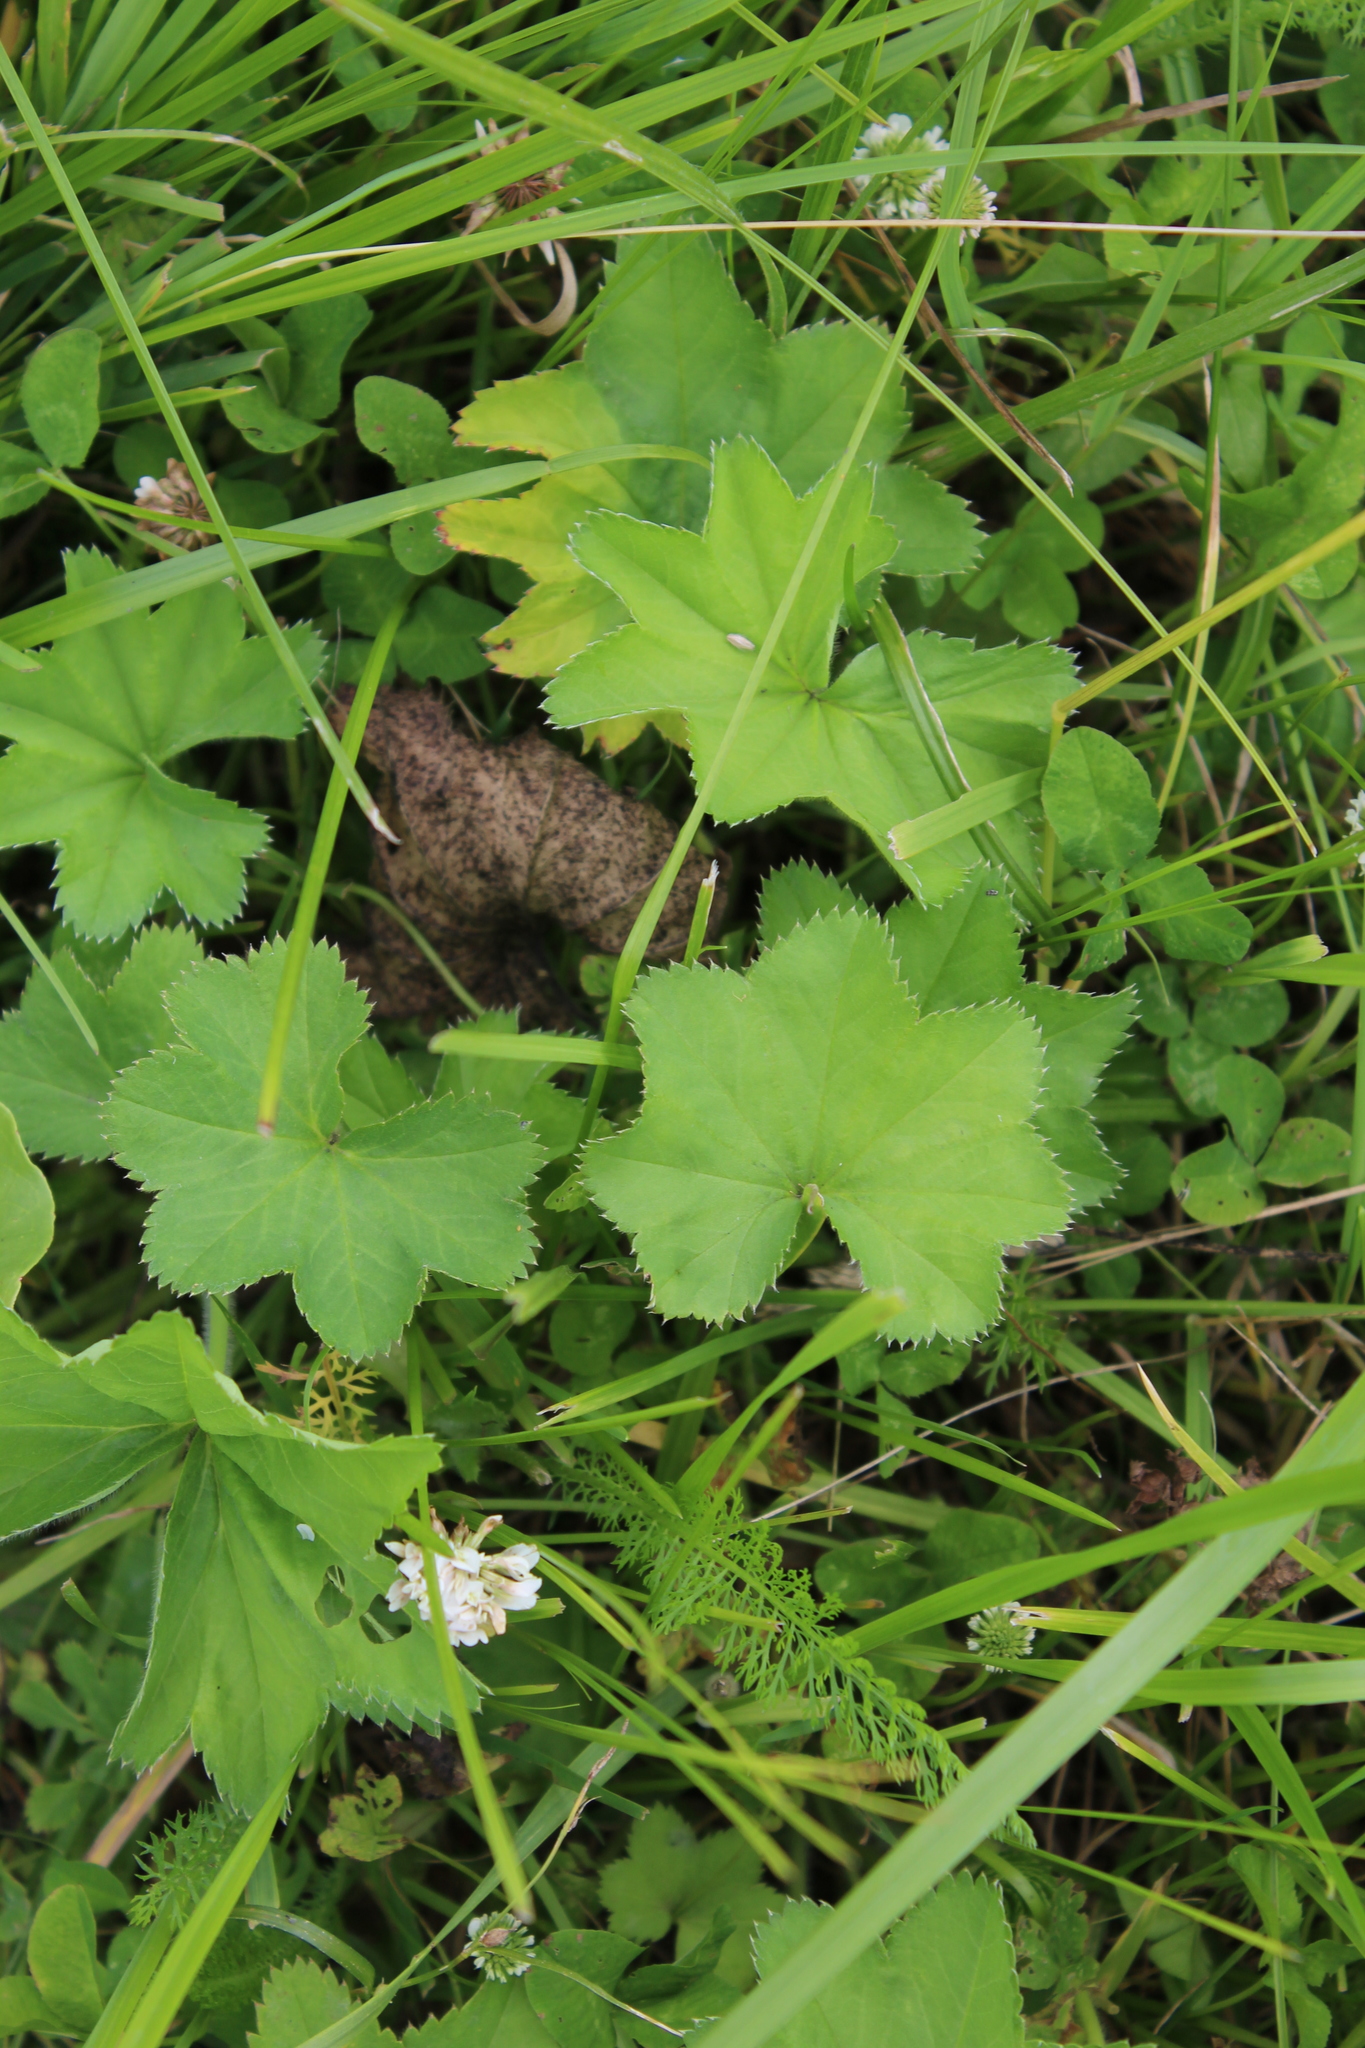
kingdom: Plantae
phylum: Tracheophyta
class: Magnoliopsida
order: Rosales
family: Rosaceae
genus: Alchemilla
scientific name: Alchemilla subcrenata
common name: Broadtooth lady's mantle
